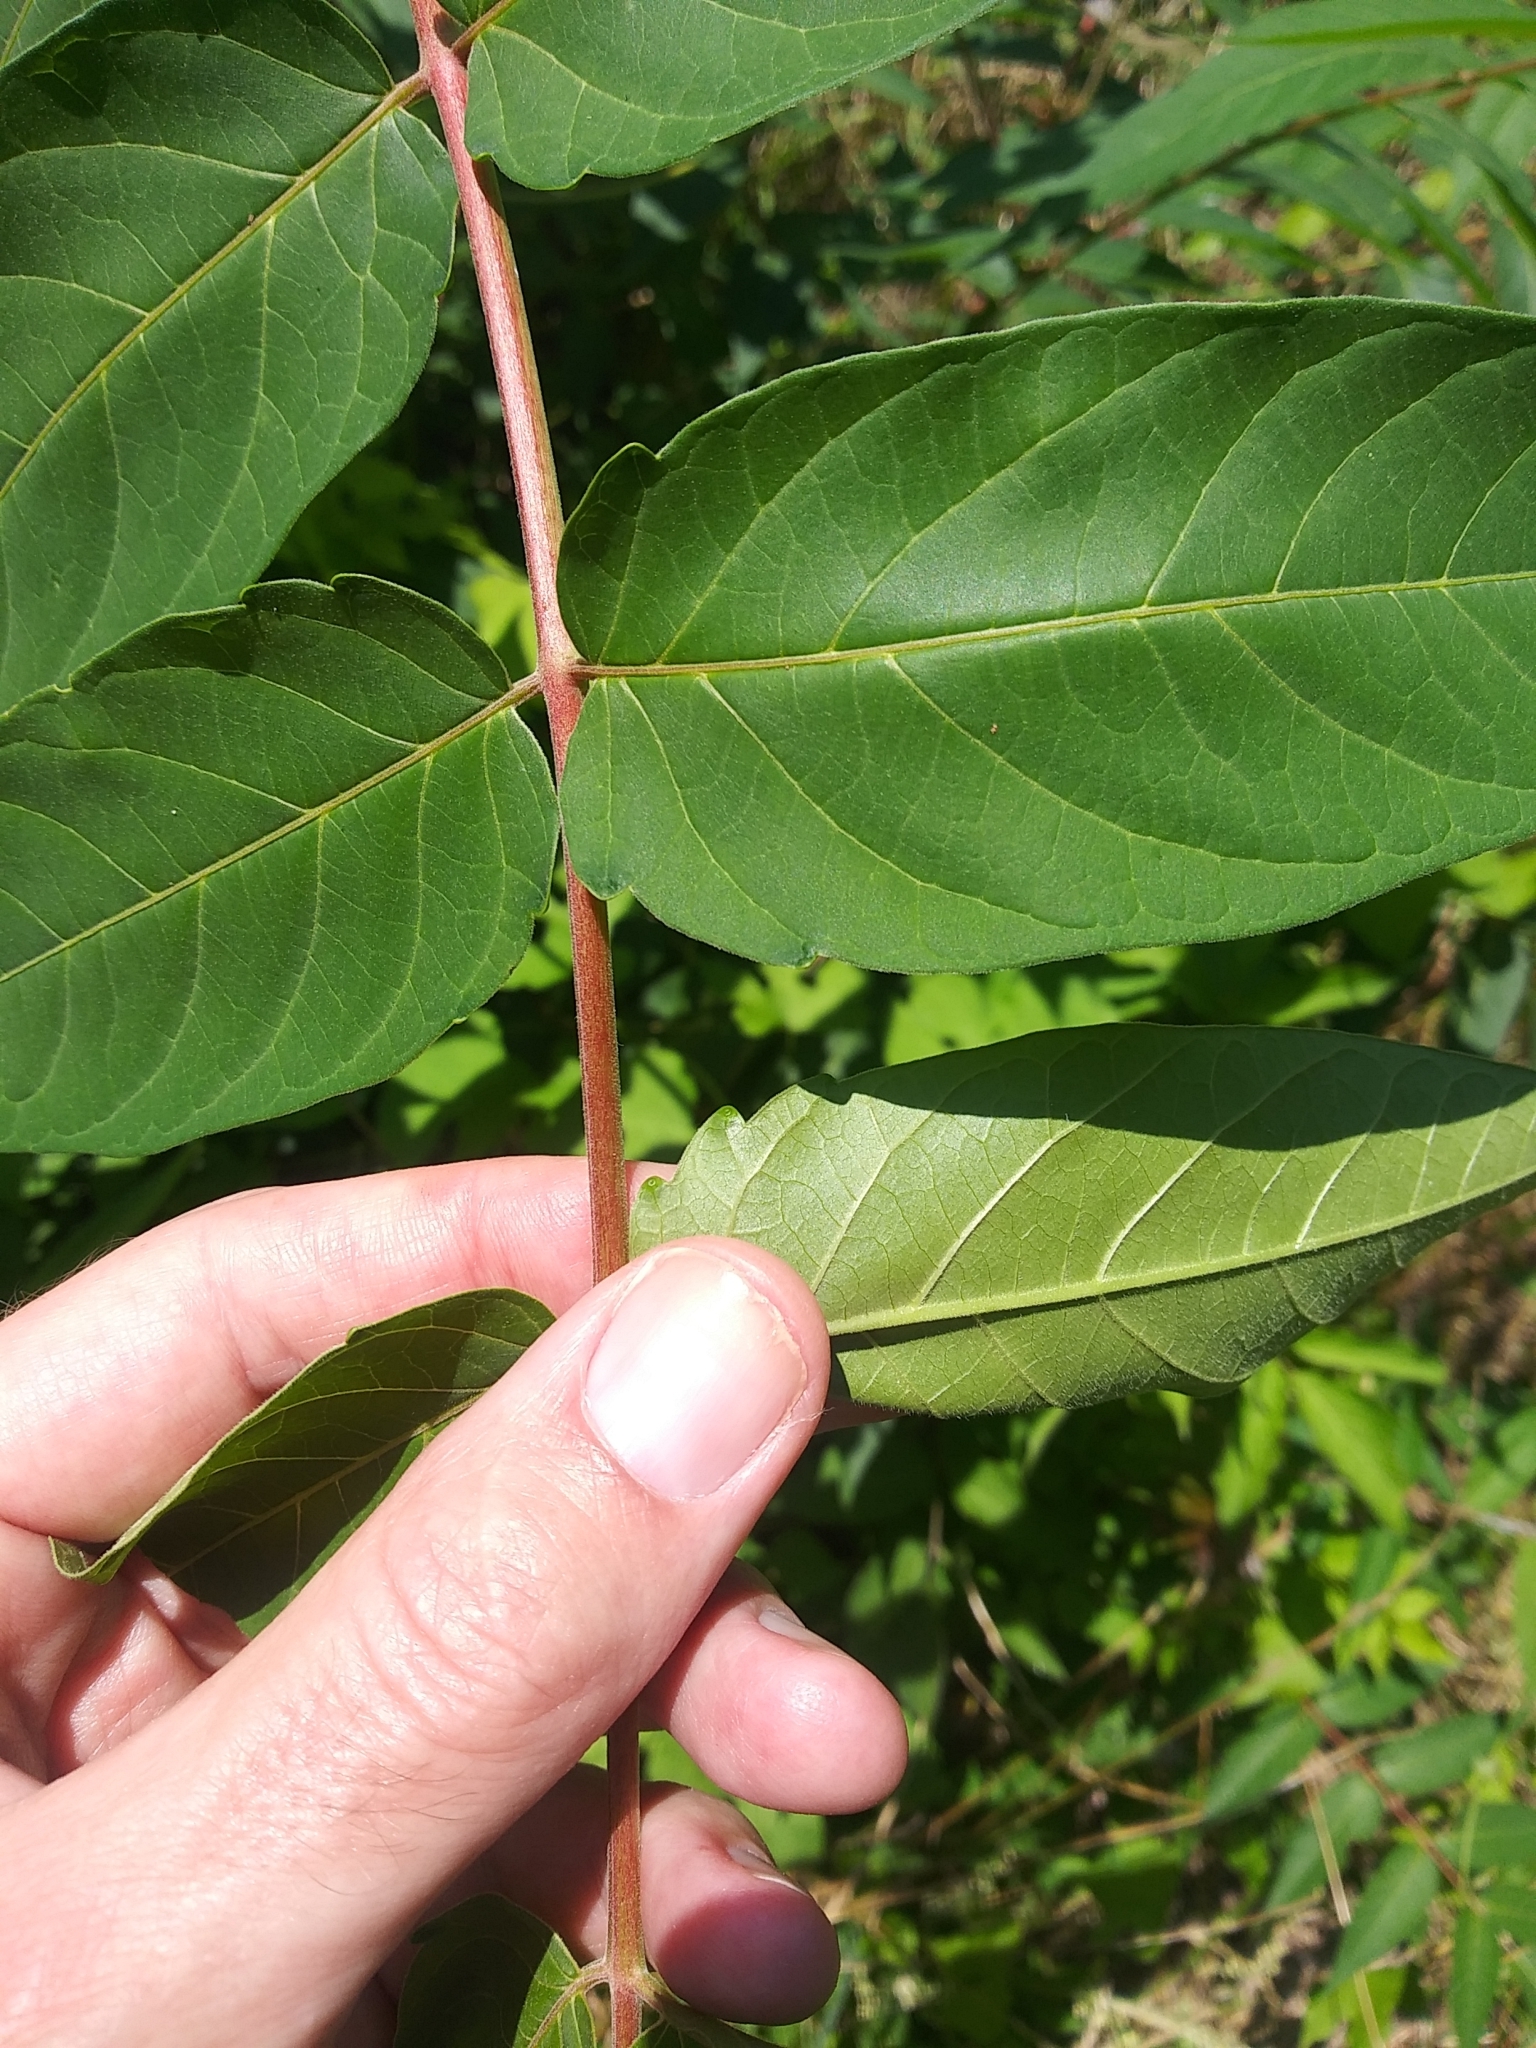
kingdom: Plantae
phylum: Tracheophyta
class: Magnoliopsida
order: Sapindales
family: Simaroubaceae
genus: Ailanthus
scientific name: Ailanthus altissima
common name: Tree-of-heaven
